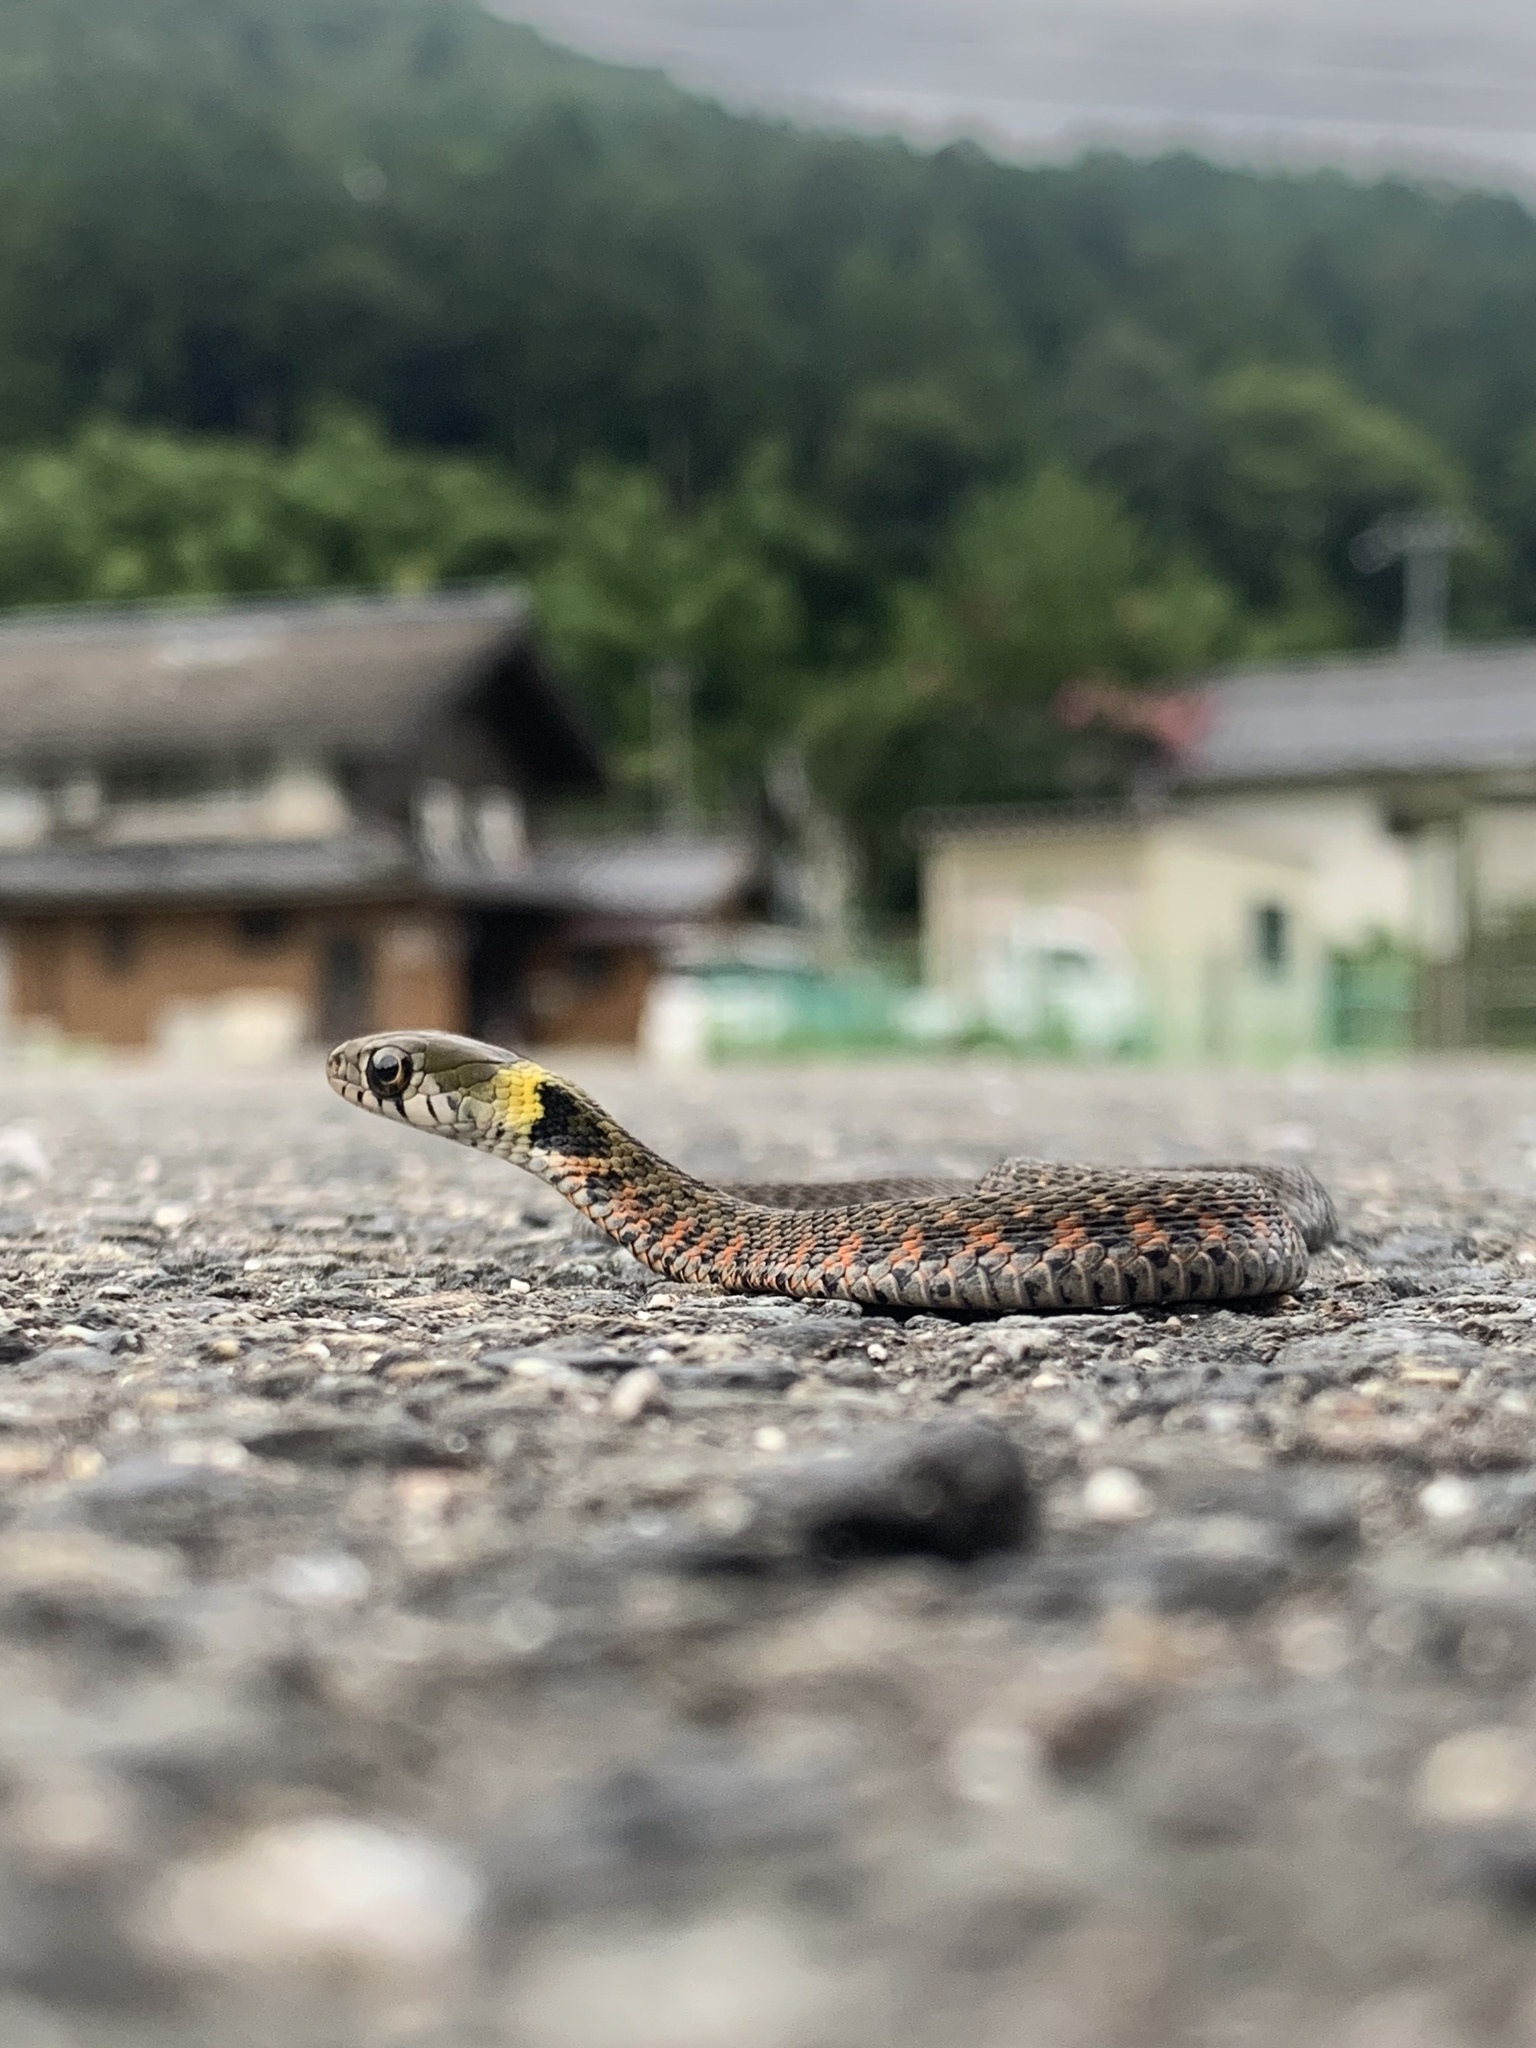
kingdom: Animalia
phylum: Chordata
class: Squamata
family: Colubridae
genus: Rhabdophis
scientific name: Rhabdophis tigrinus
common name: Tiger keelback
